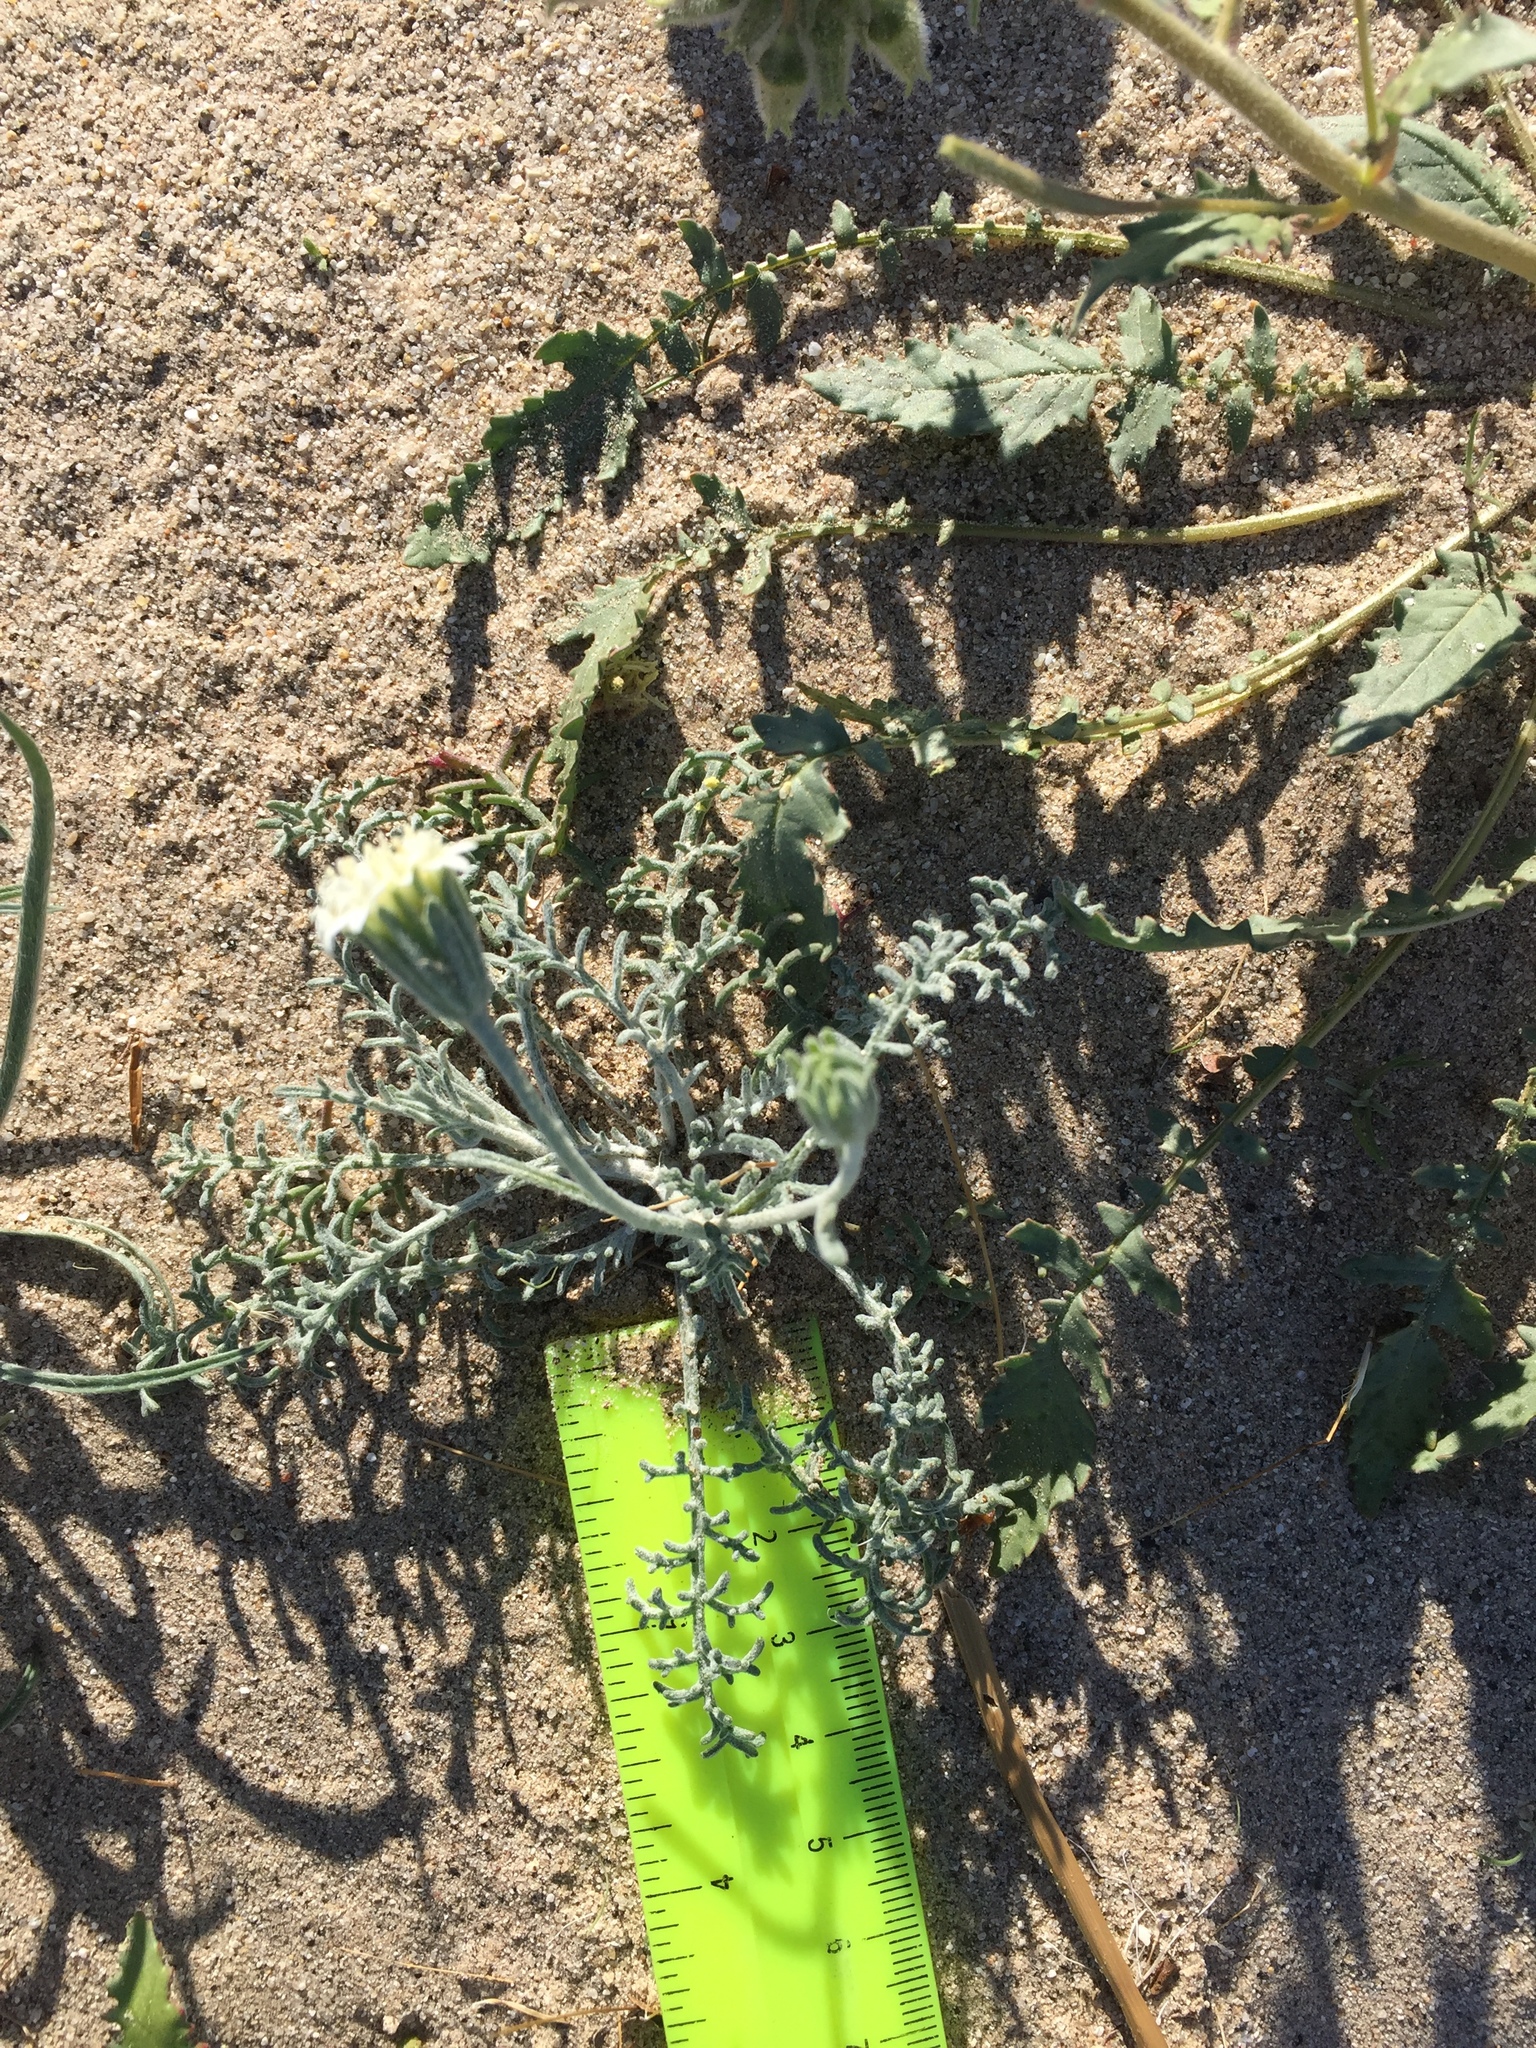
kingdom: Plantae
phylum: Tracheophyta
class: Magnoliopsida
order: Asterales
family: Asteraceae
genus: Chaenactis
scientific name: Chaenactis stevioides
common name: Desert pincushion
